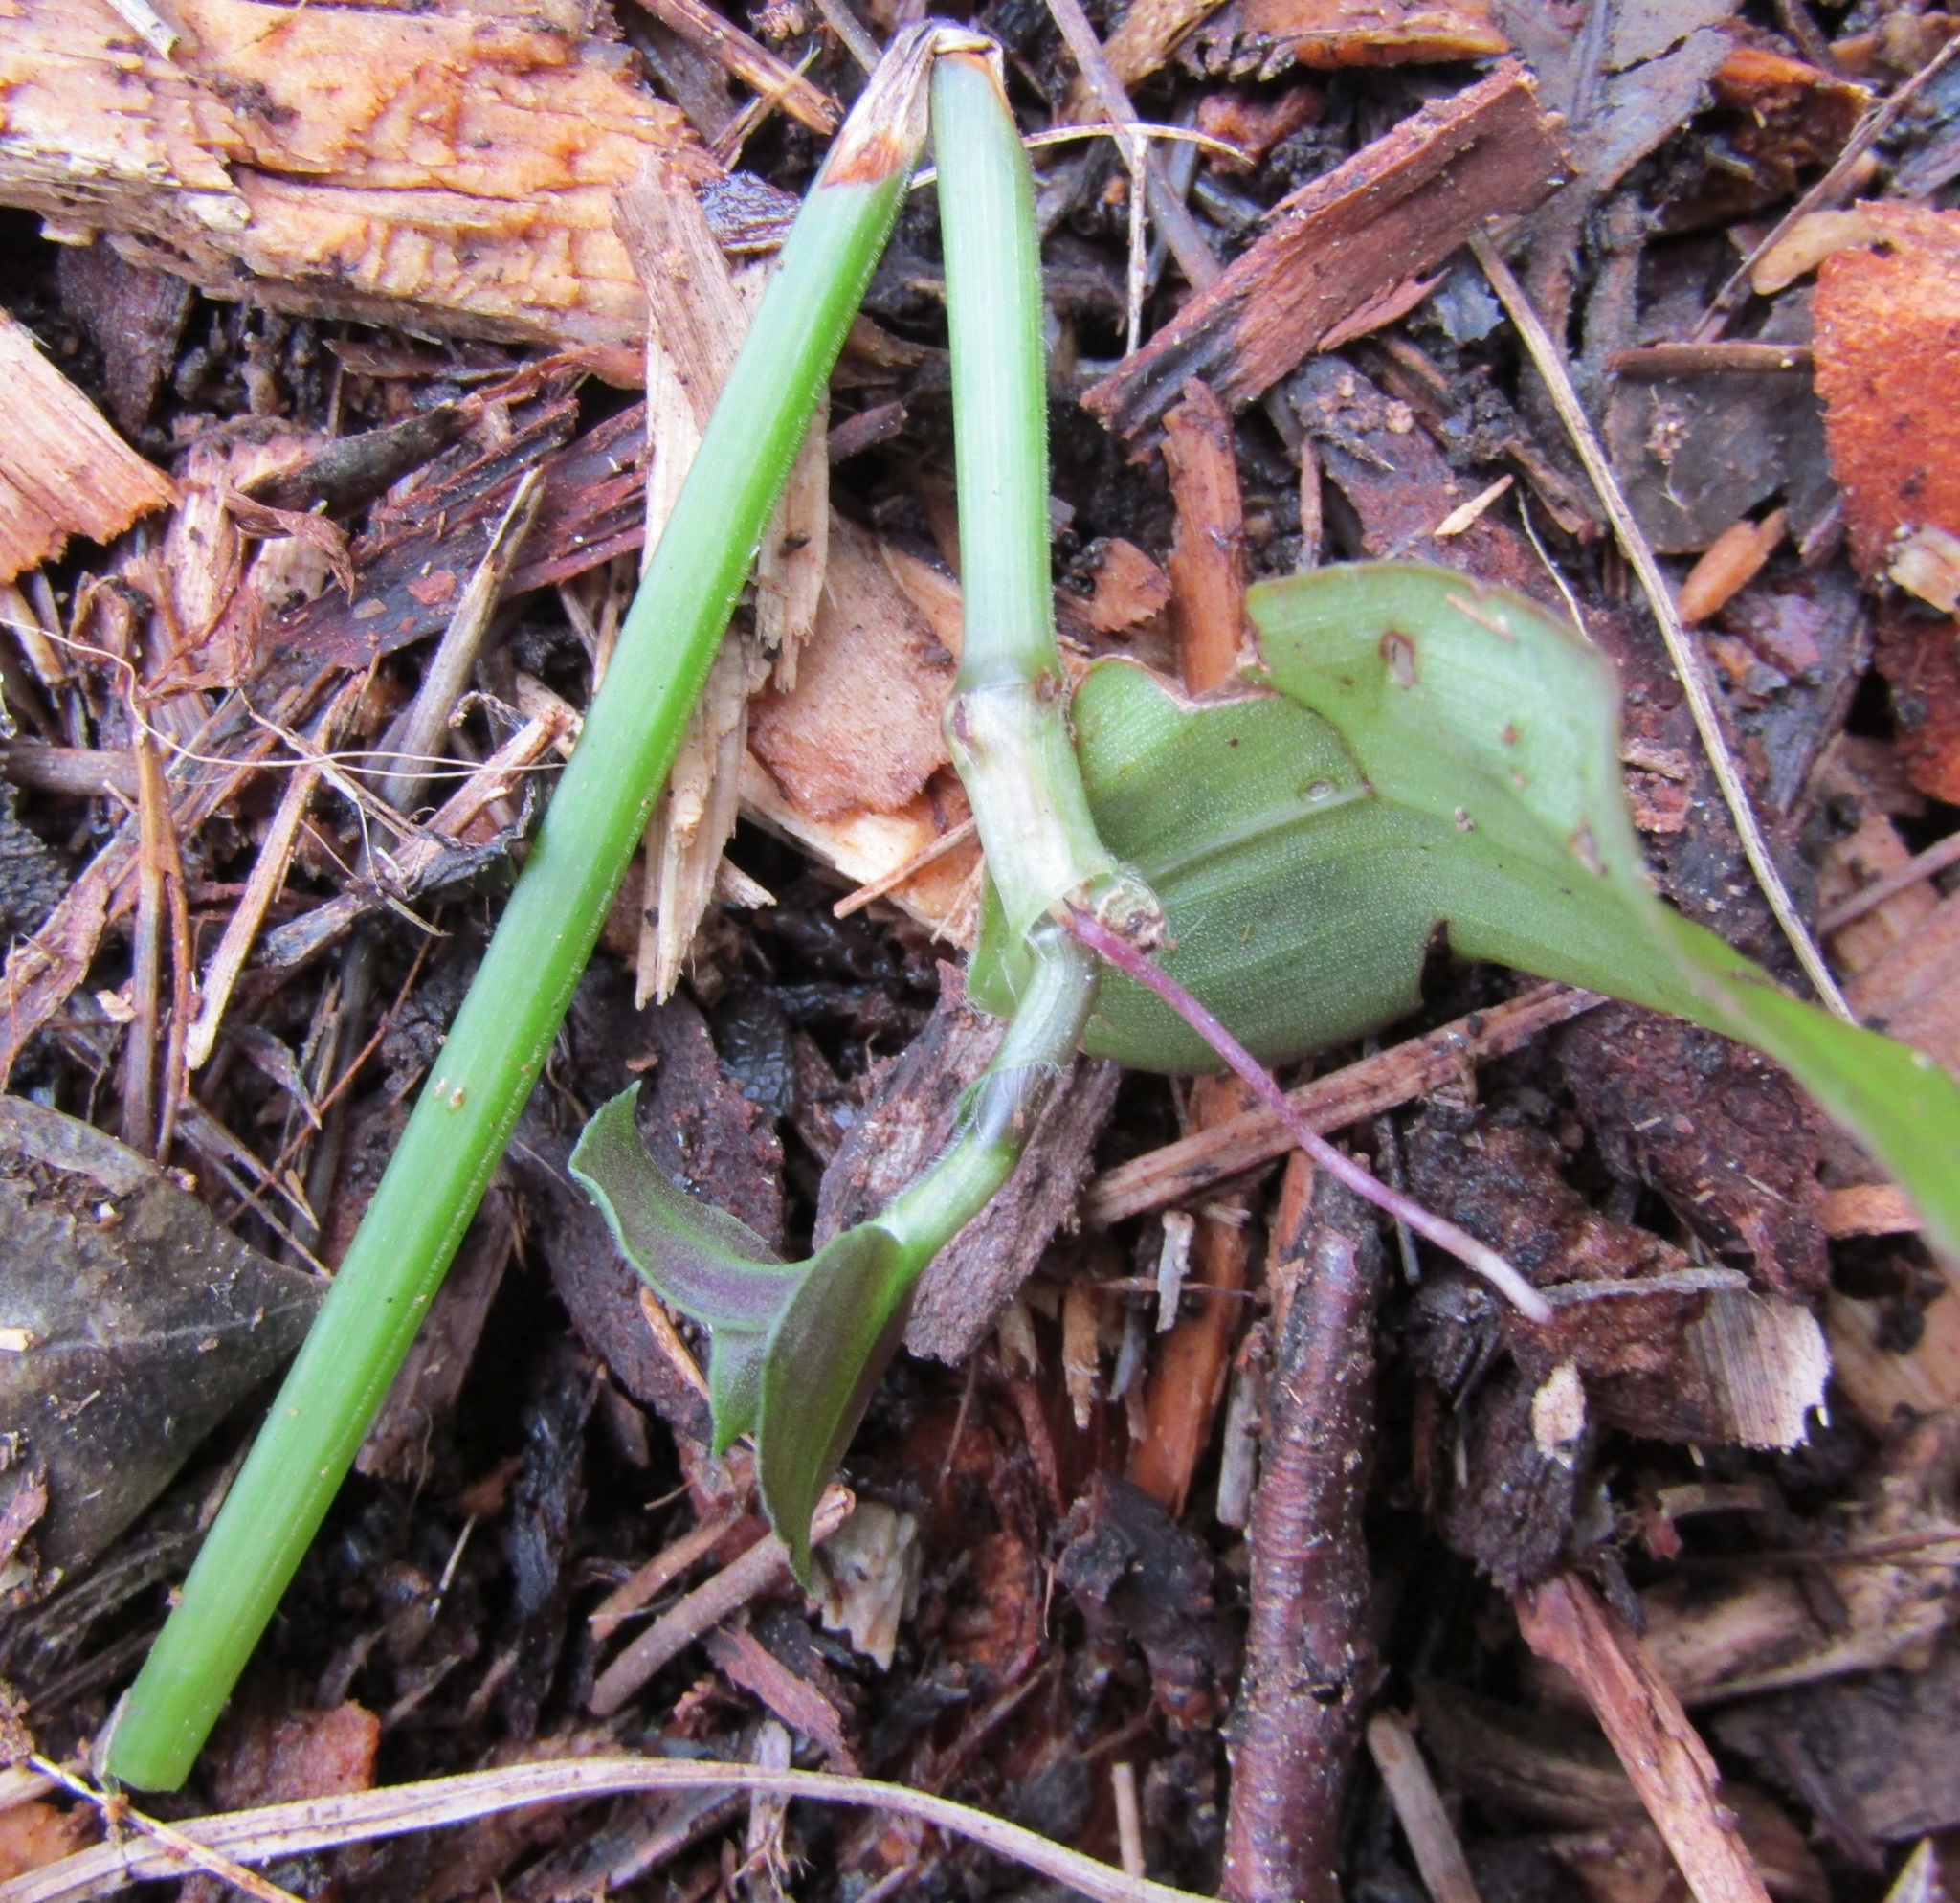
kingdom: Plantae
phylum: Tracheophyta
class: Liliopsida
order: Commelinales
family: Commelinaceae
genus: Tradescantia
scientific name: Tradescantia fluminensis
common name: Wandering-jew
